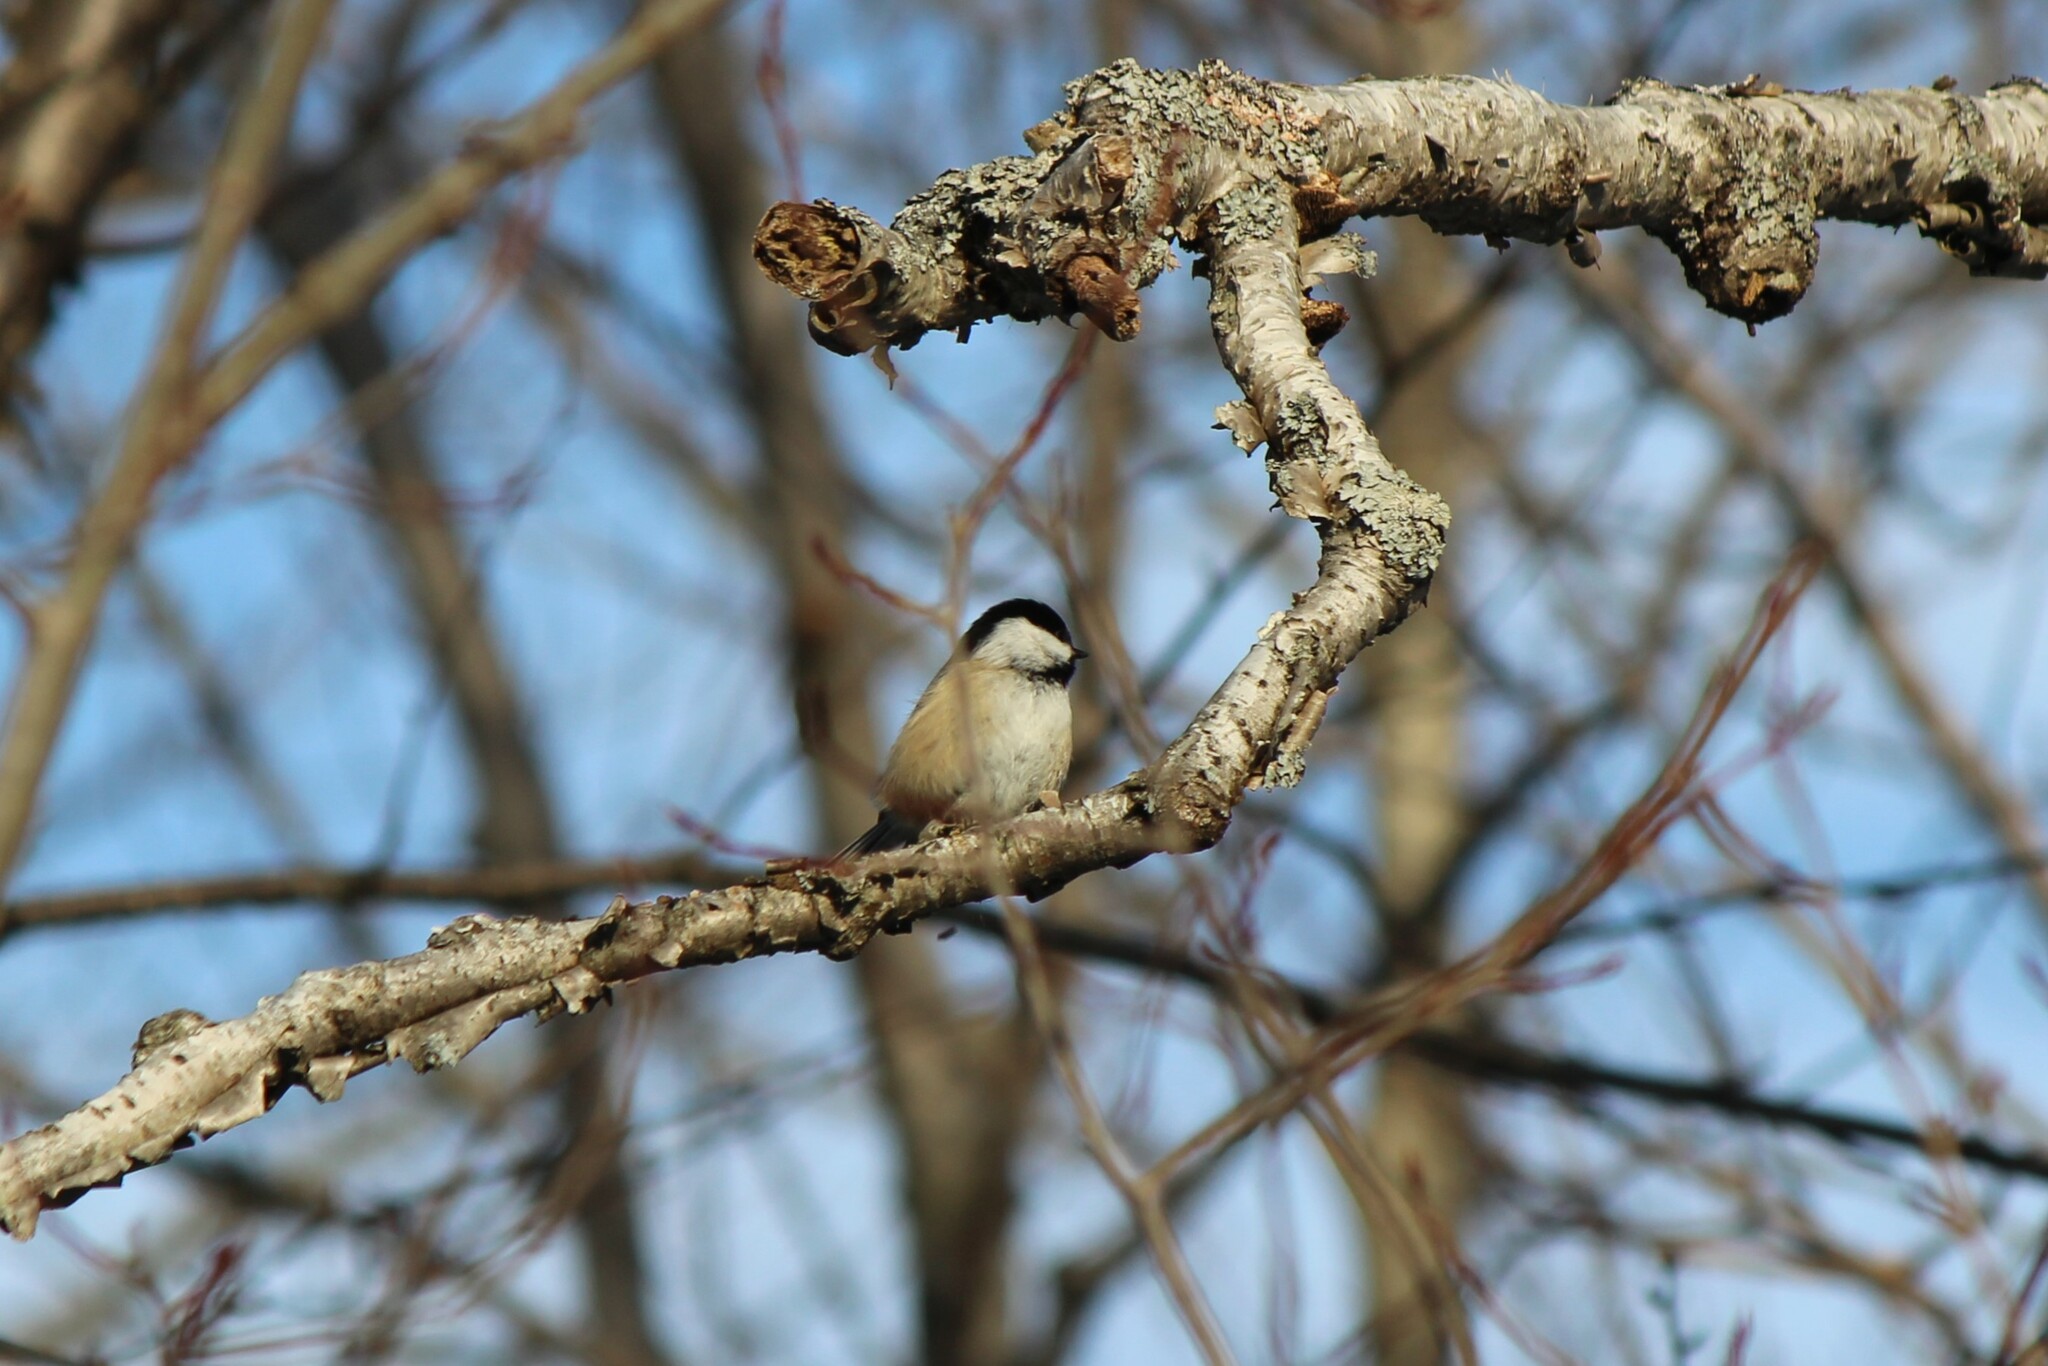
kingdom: Animalia
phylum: Chordata
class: Aves
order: Passeriformes
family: Paridae
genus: Poecile
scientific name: Poecile atricapillus
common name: Black-capped chickadee
